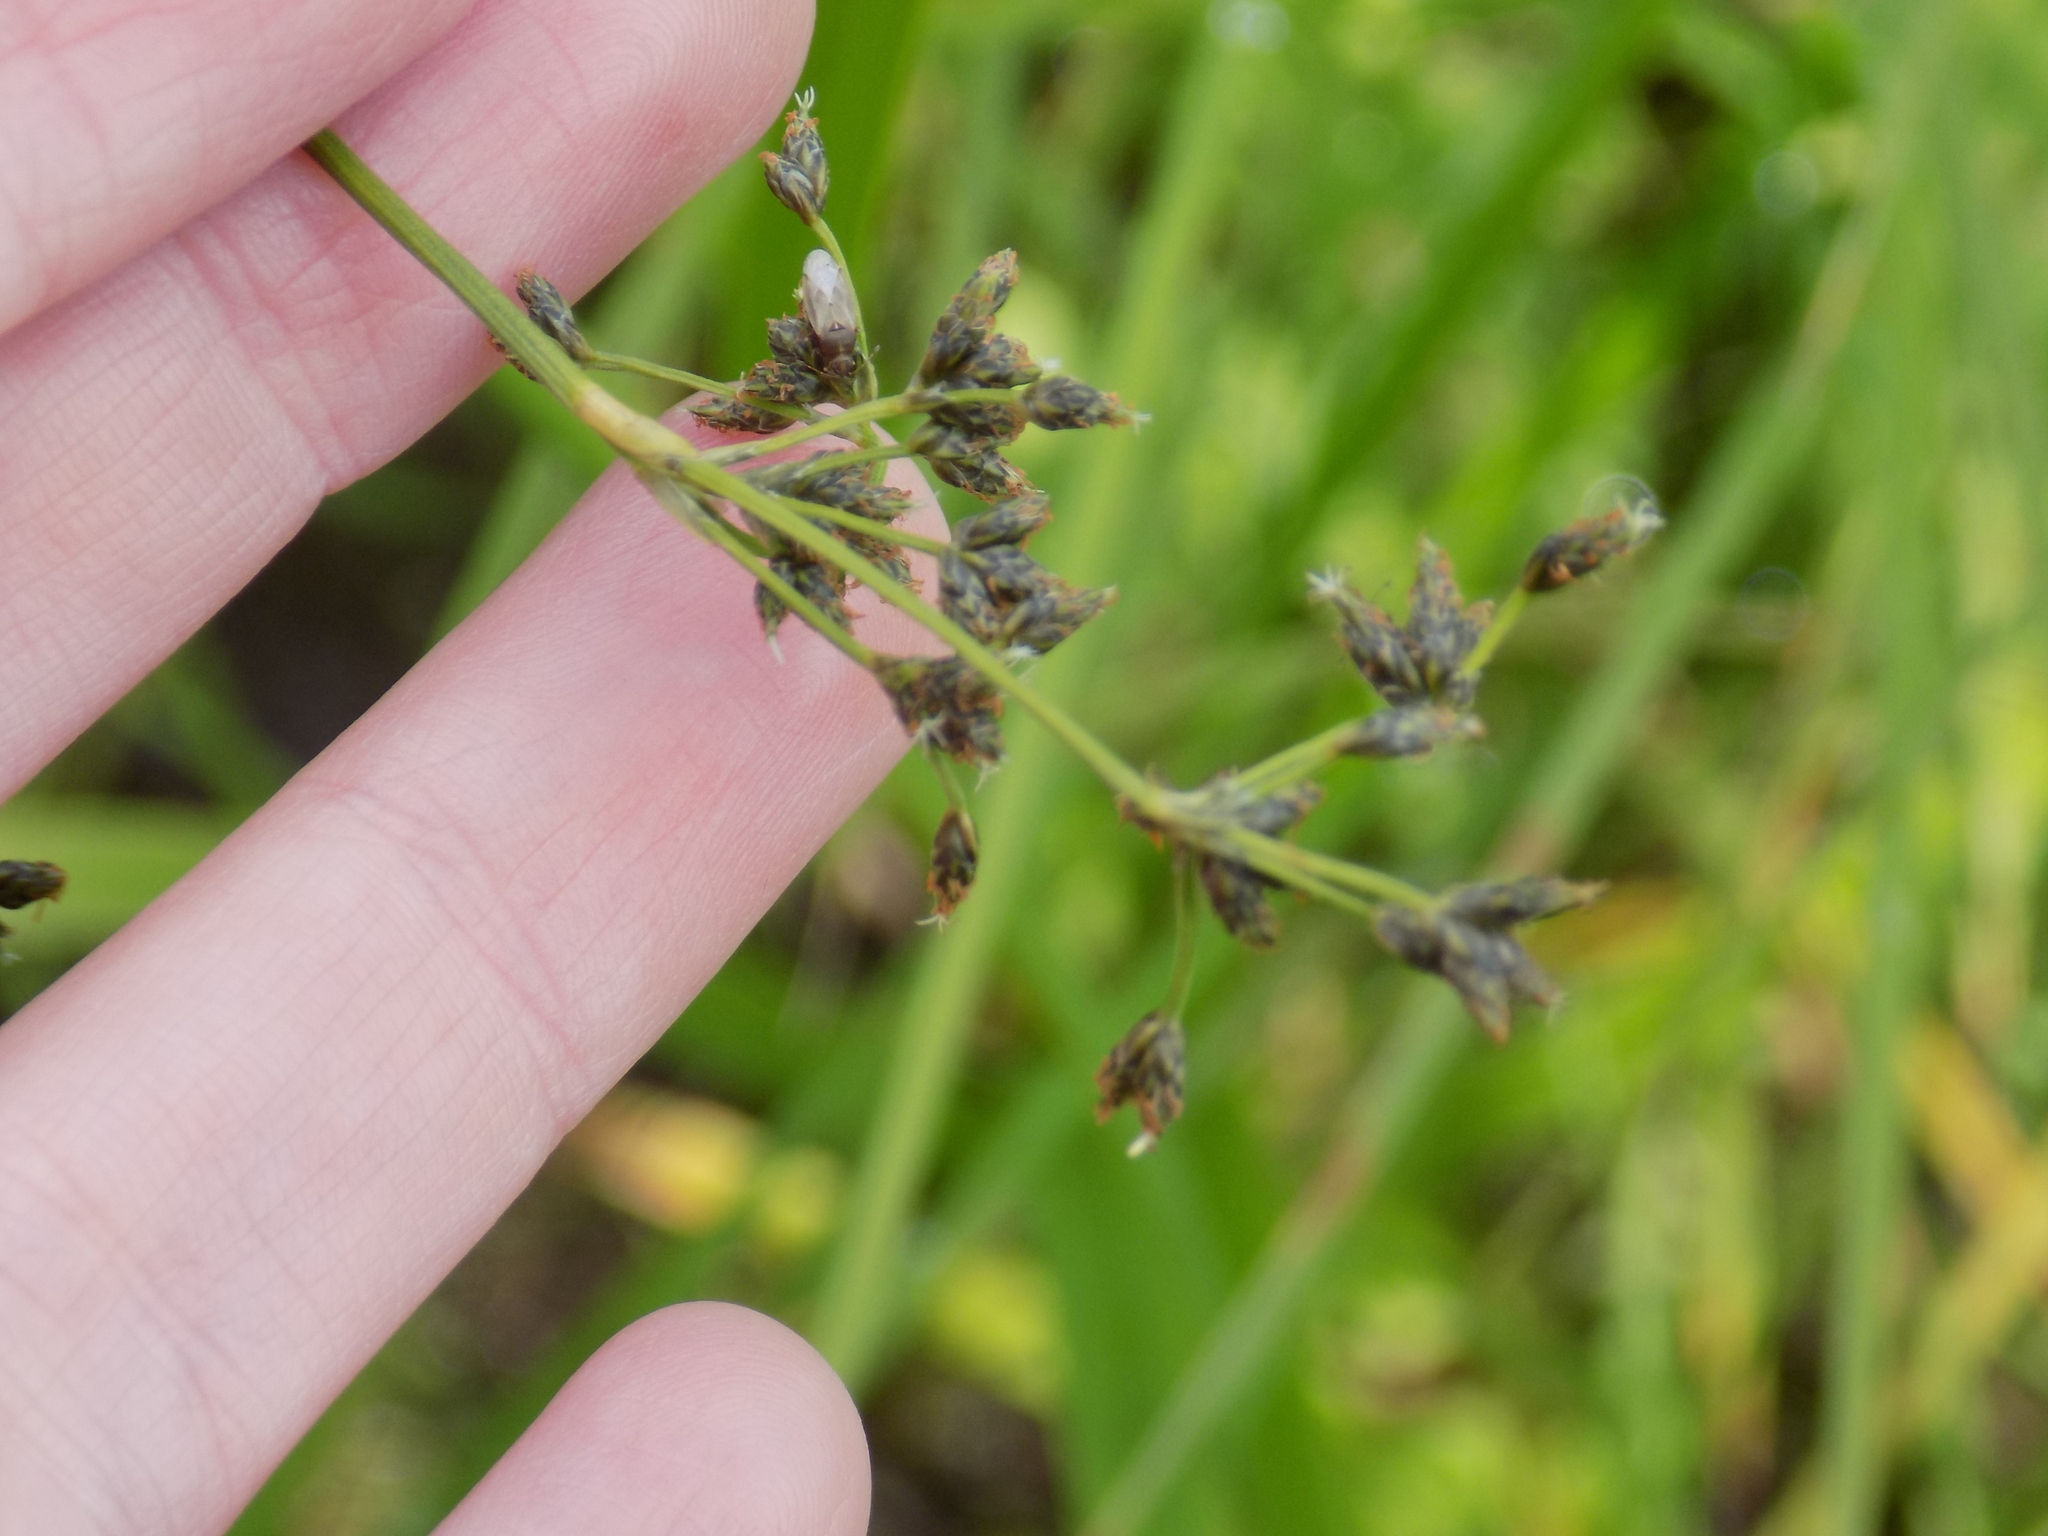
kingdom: Plantae
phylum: Tracheophyta
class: Liliopsida
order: Poales
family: Cyperaceae
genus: Scirpus
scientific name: Scirpus sylvaticus
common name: Wood club-rush
